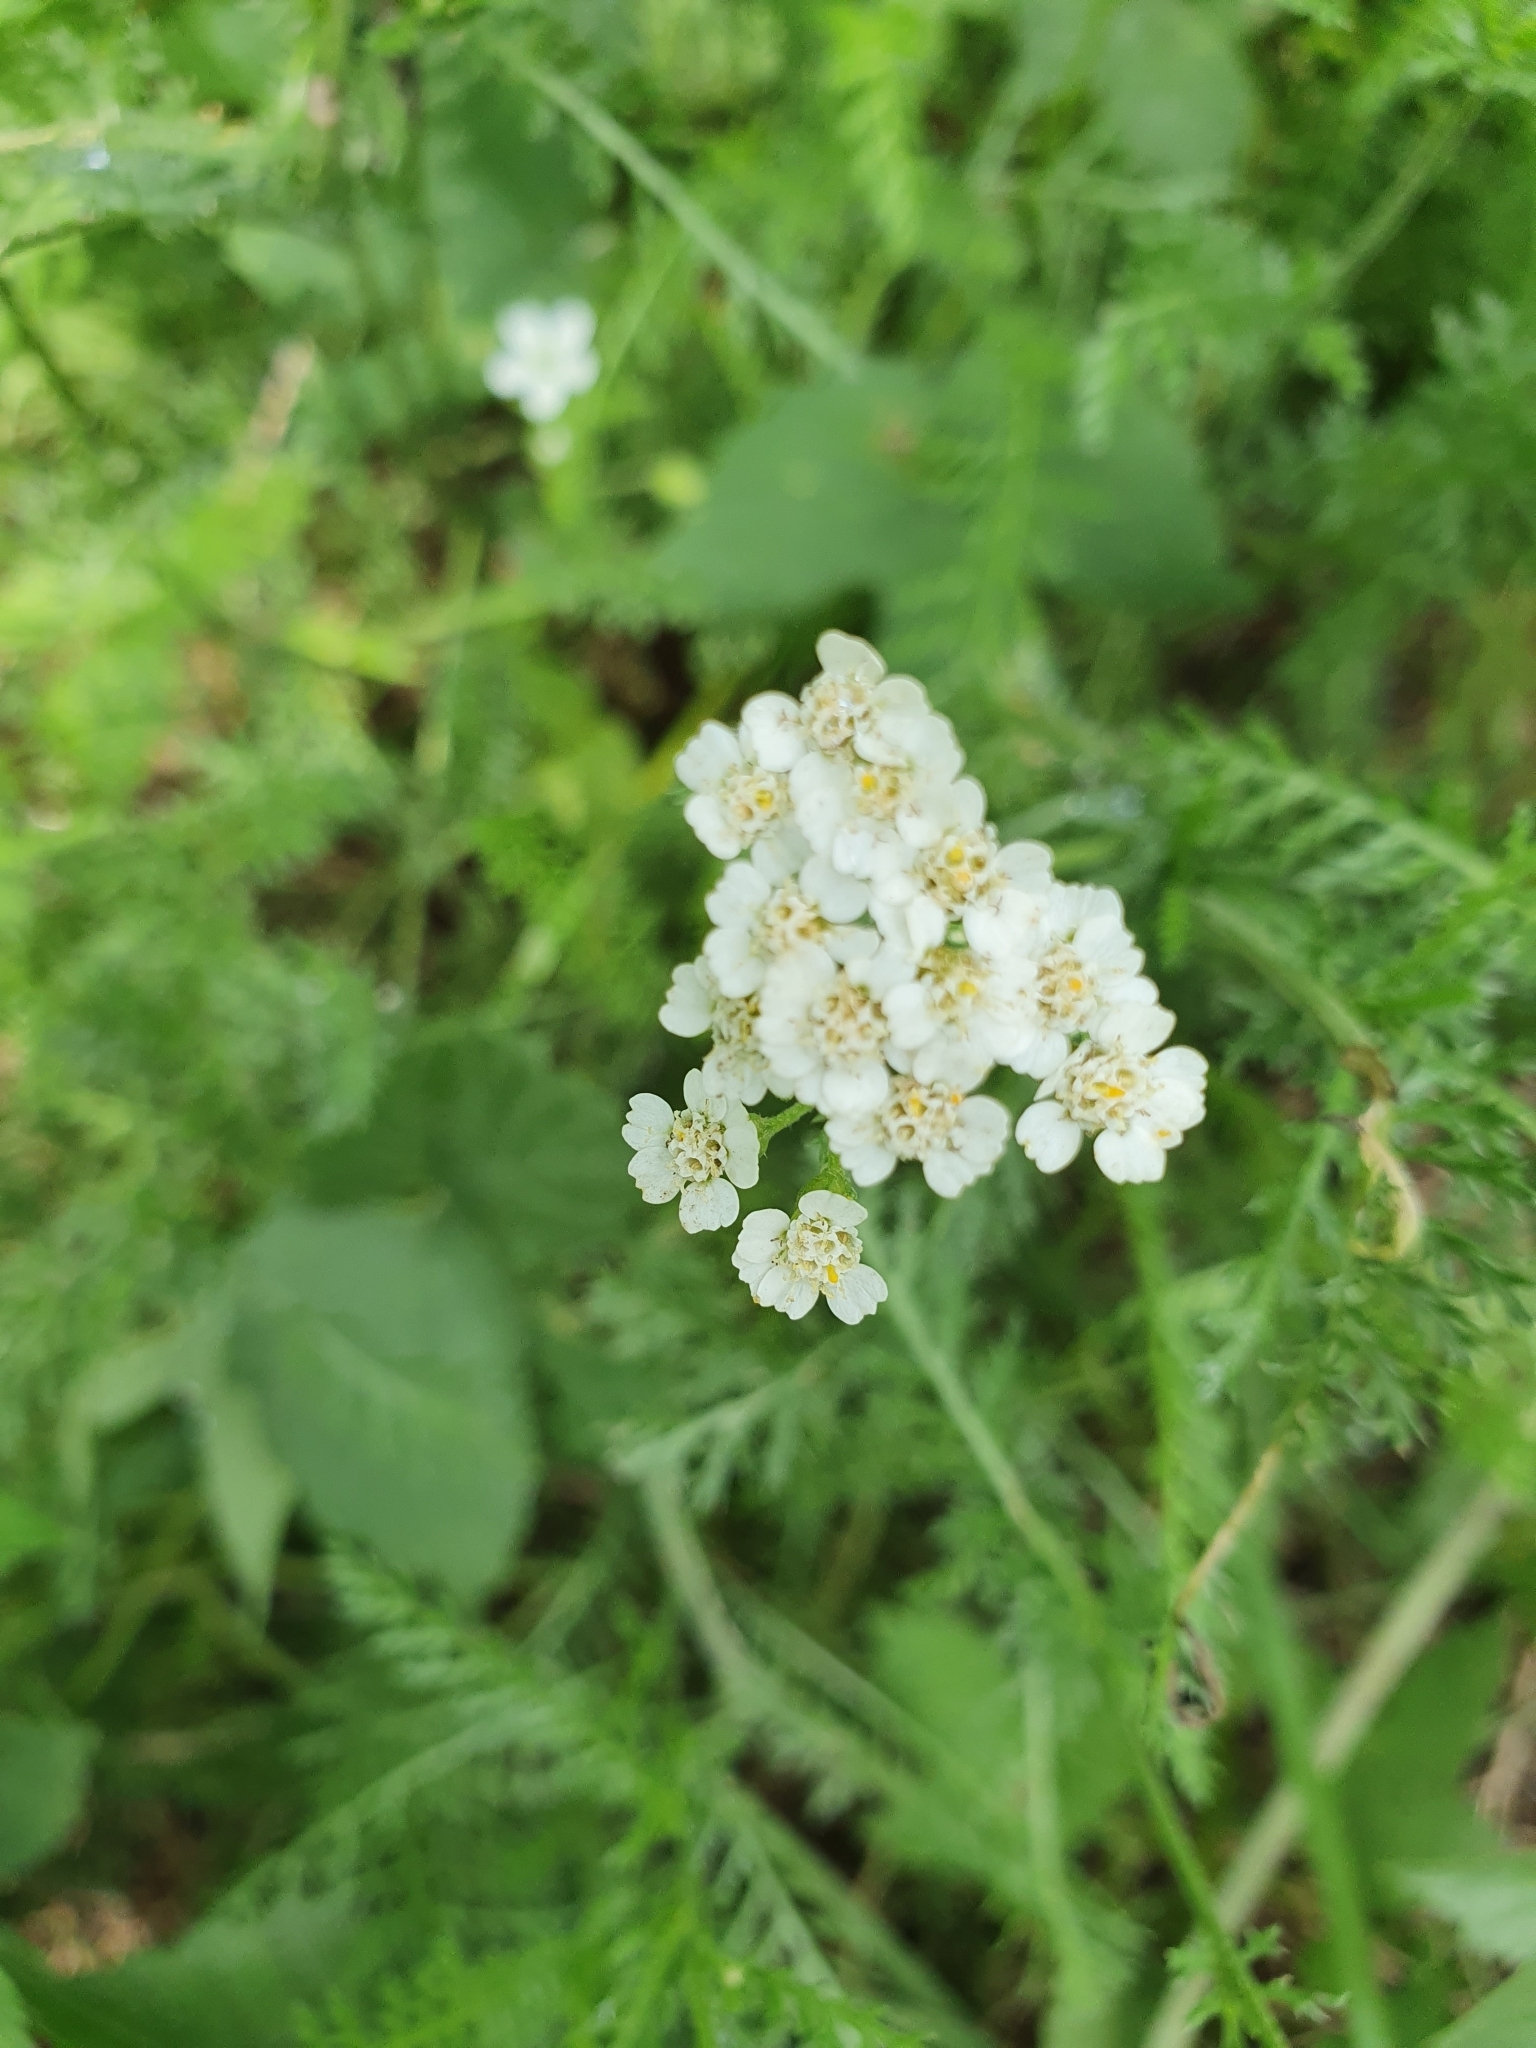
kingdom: Plantae
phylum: Tracheophyta
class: Magnoliopsida
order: Asterales
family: Asteraceae
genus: Achillea
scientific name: Achillea millefolium
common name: Yarrow
